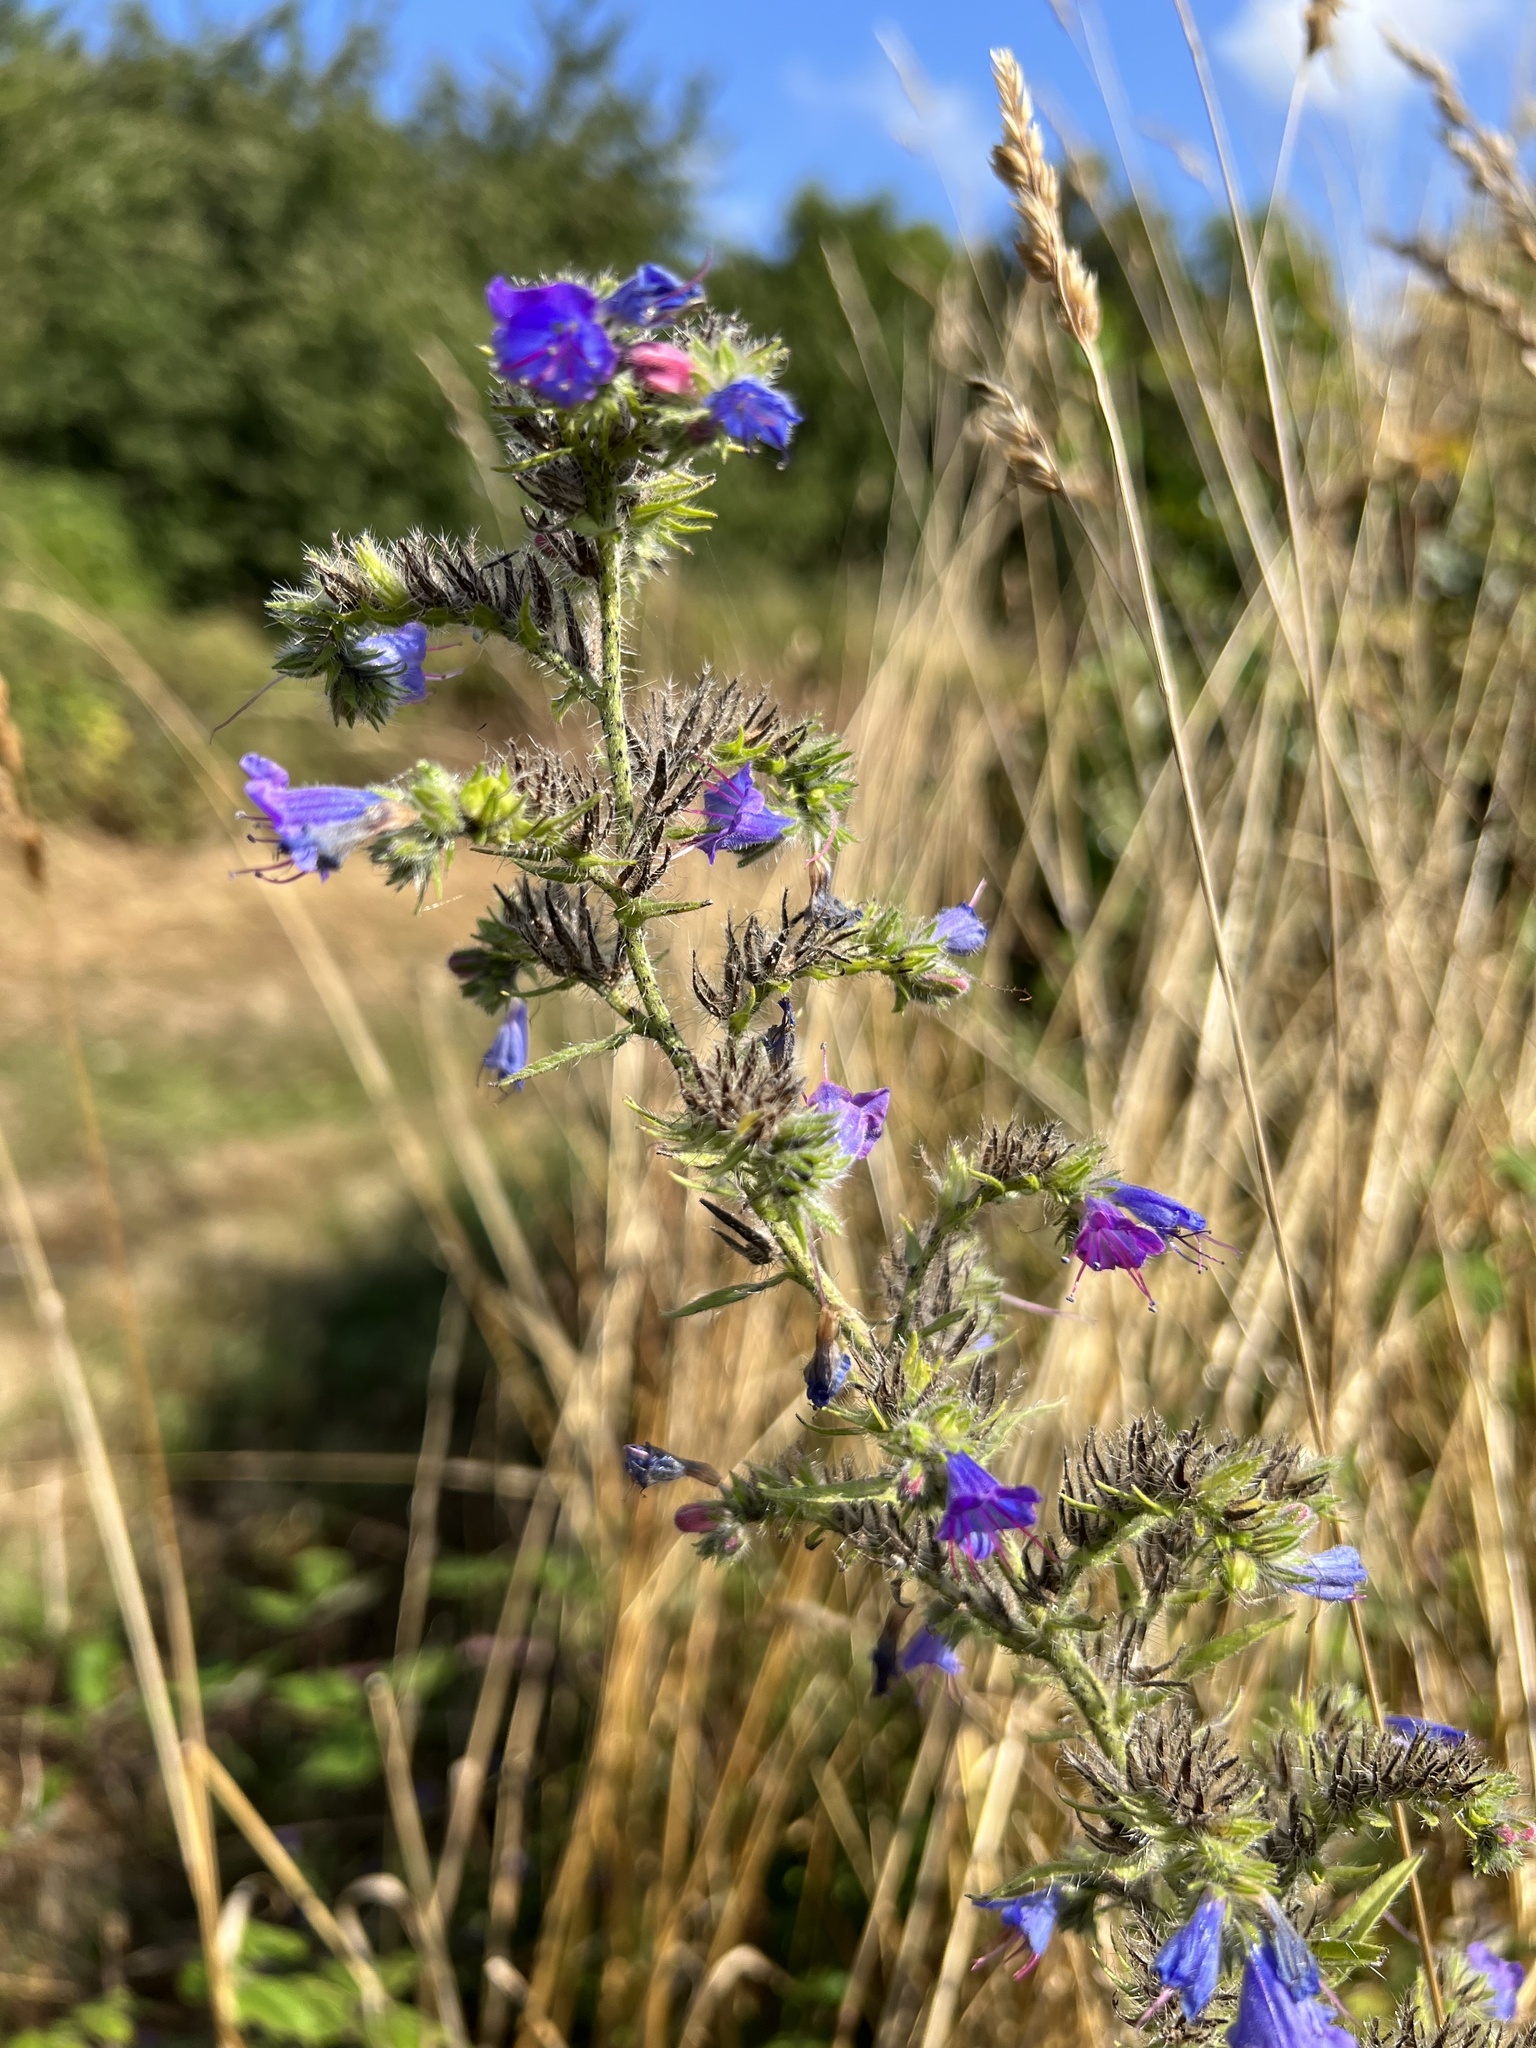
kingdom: Plantae
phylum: Tracheophyta
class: Magnoliopsida
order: Boraginales
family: Boraginaceae
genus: Echium
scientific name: Echium vulgare
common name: Common viper's bugloss
